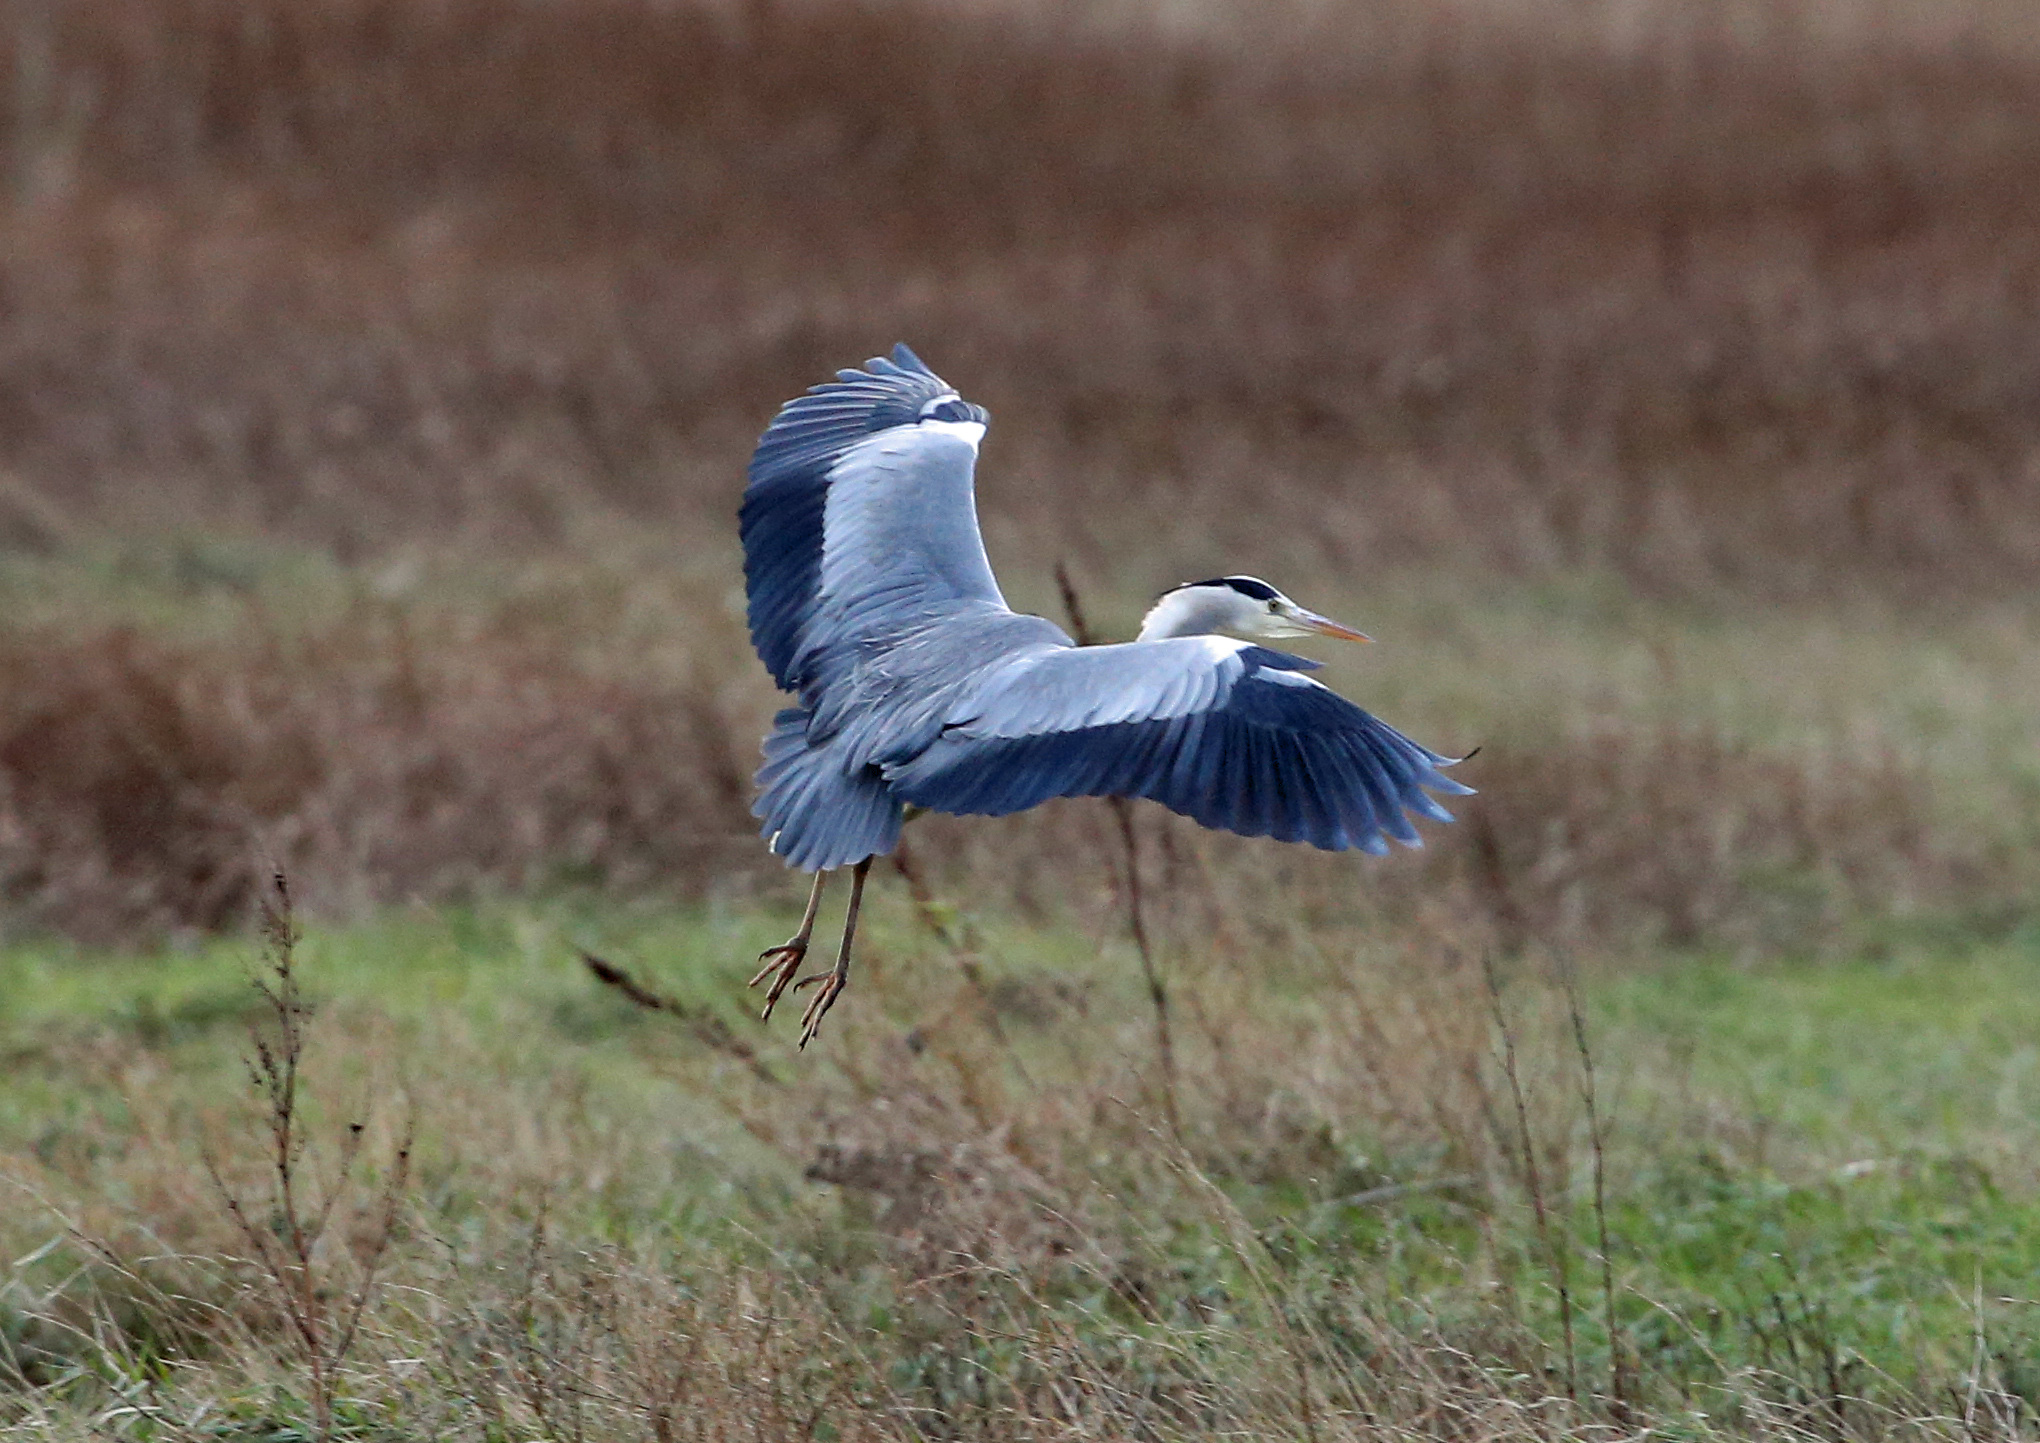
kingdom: Animalia
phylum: Chordata
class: Aves
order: Pelecaniformes
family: Ardeidae
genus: Ardea
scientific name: Ardea cinerea
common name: Grey heron
